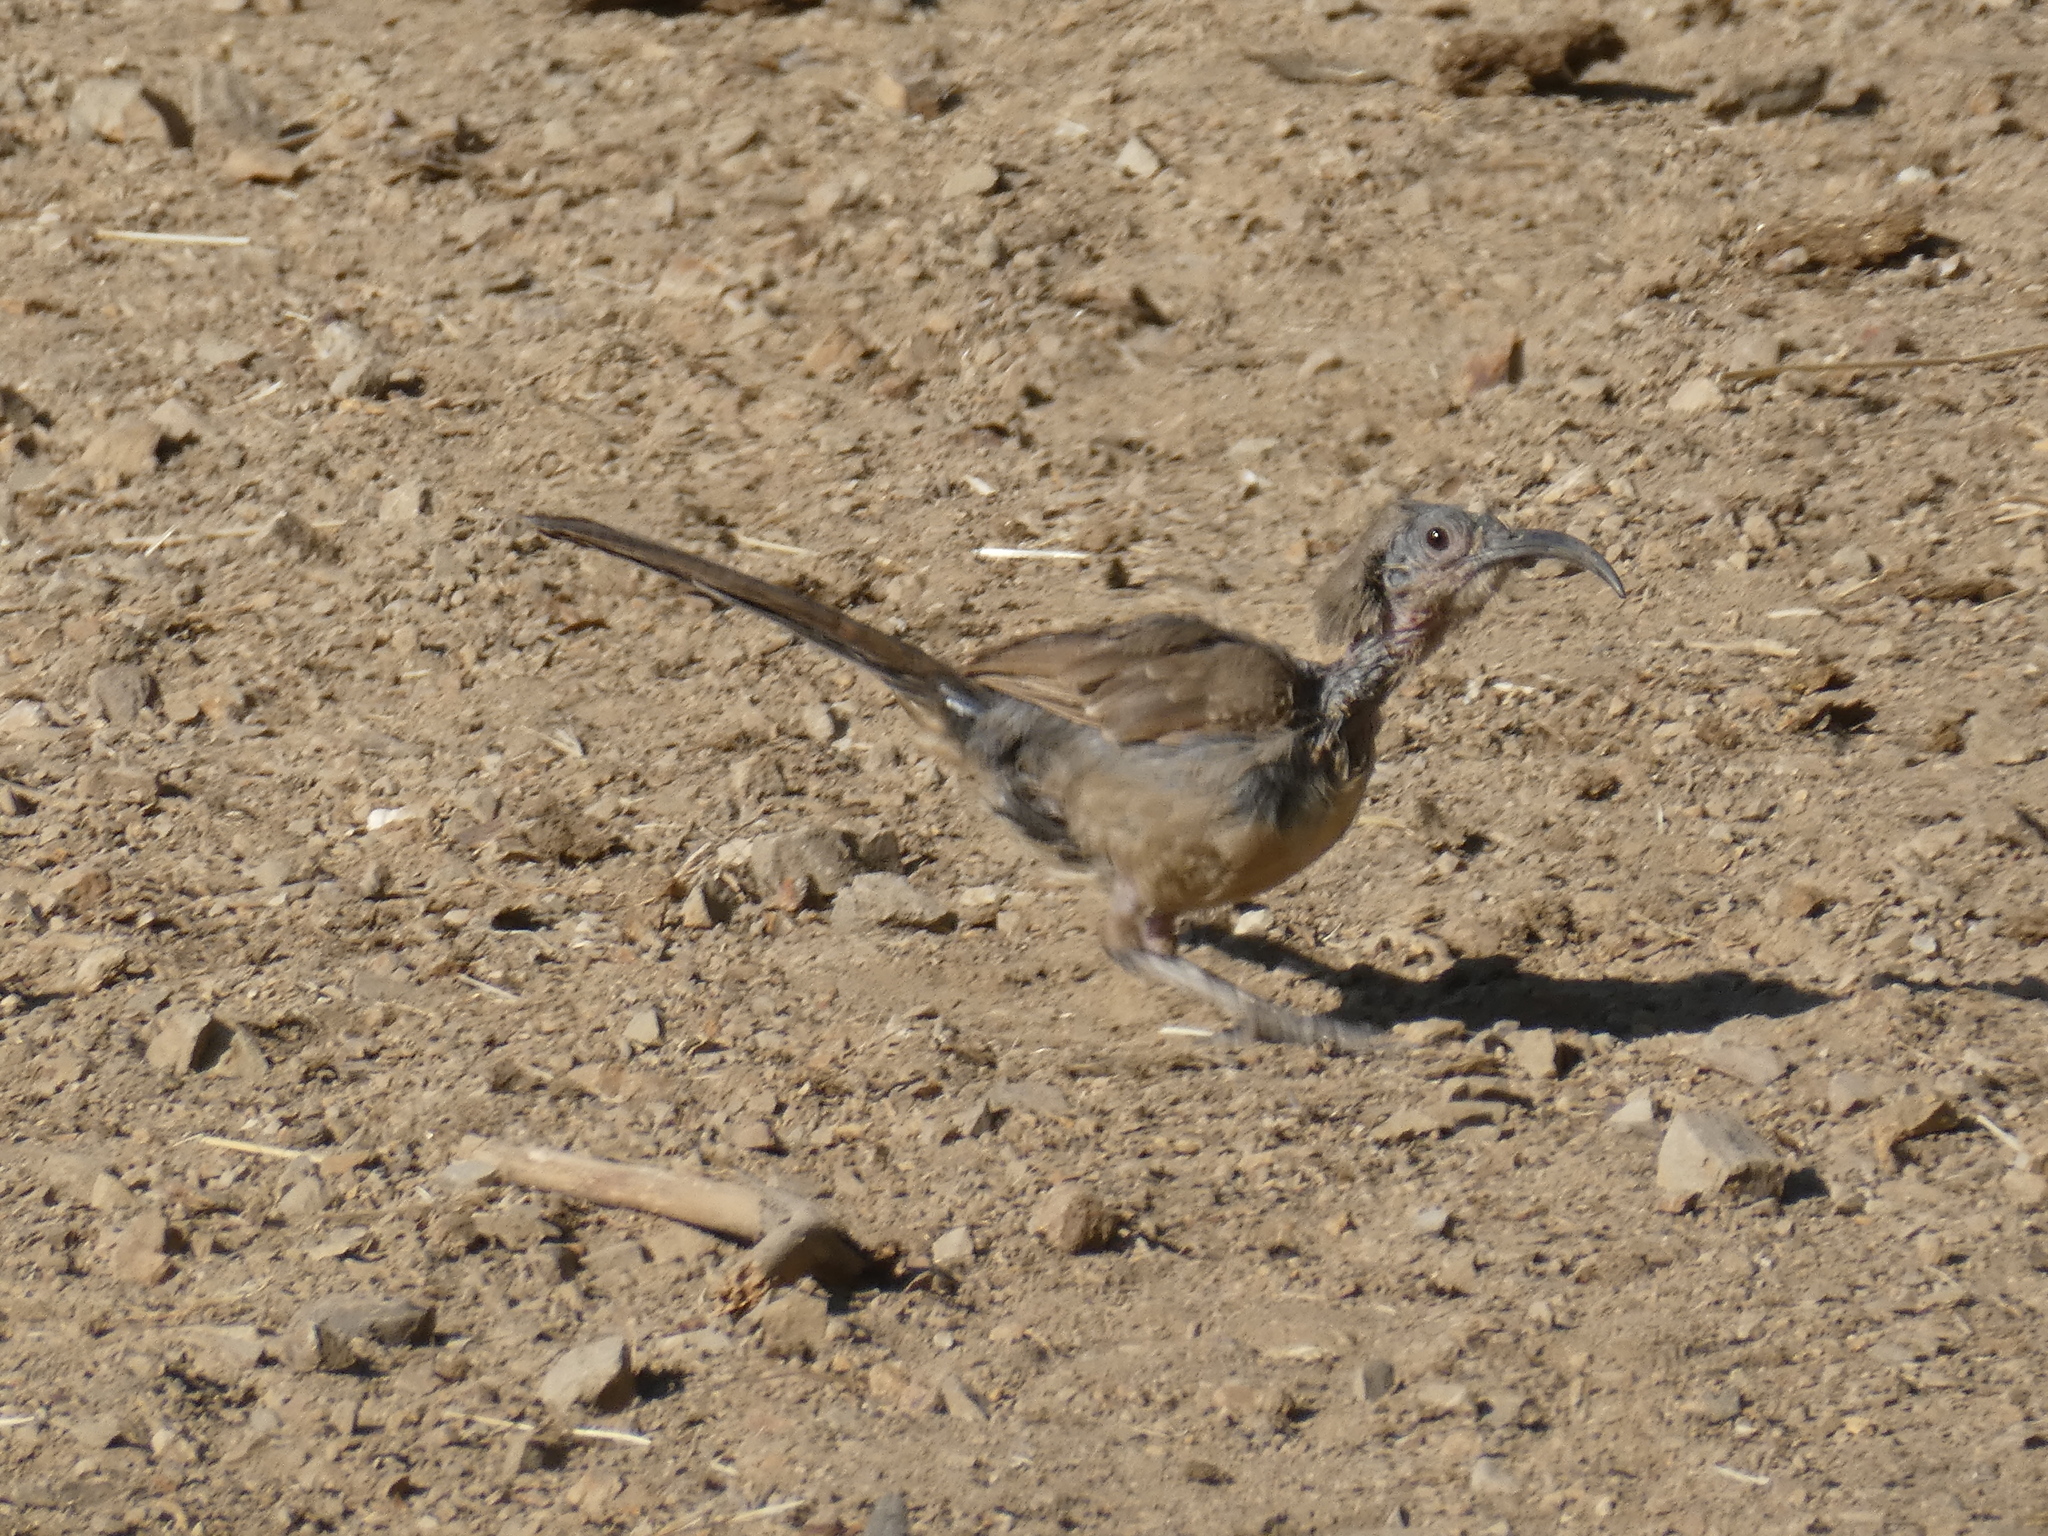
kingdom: Animalia
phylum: Chordata
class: Aves
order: Passeriformes
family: Mimidae
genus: Toxostoma
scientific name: Toxostoma redivivum
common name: California thrasher
